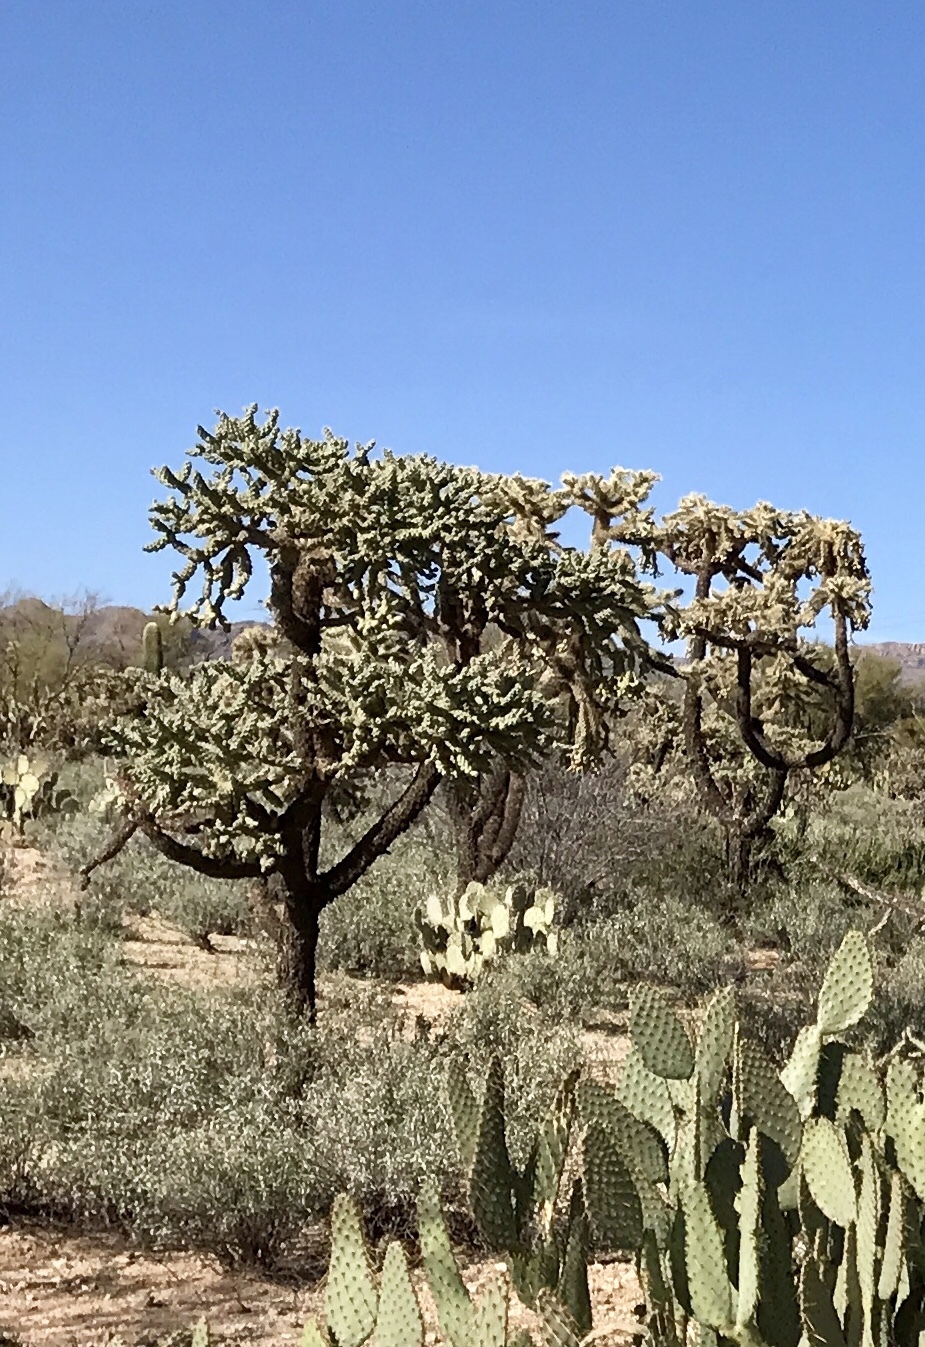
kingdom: Plantae
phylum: Tracheophyta
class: Magnoliopsida
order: Caryophyllales
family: Cactaceae
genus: Cylindropuntia
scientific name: Cylindropuntia fulgida
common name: Jumping cholla
